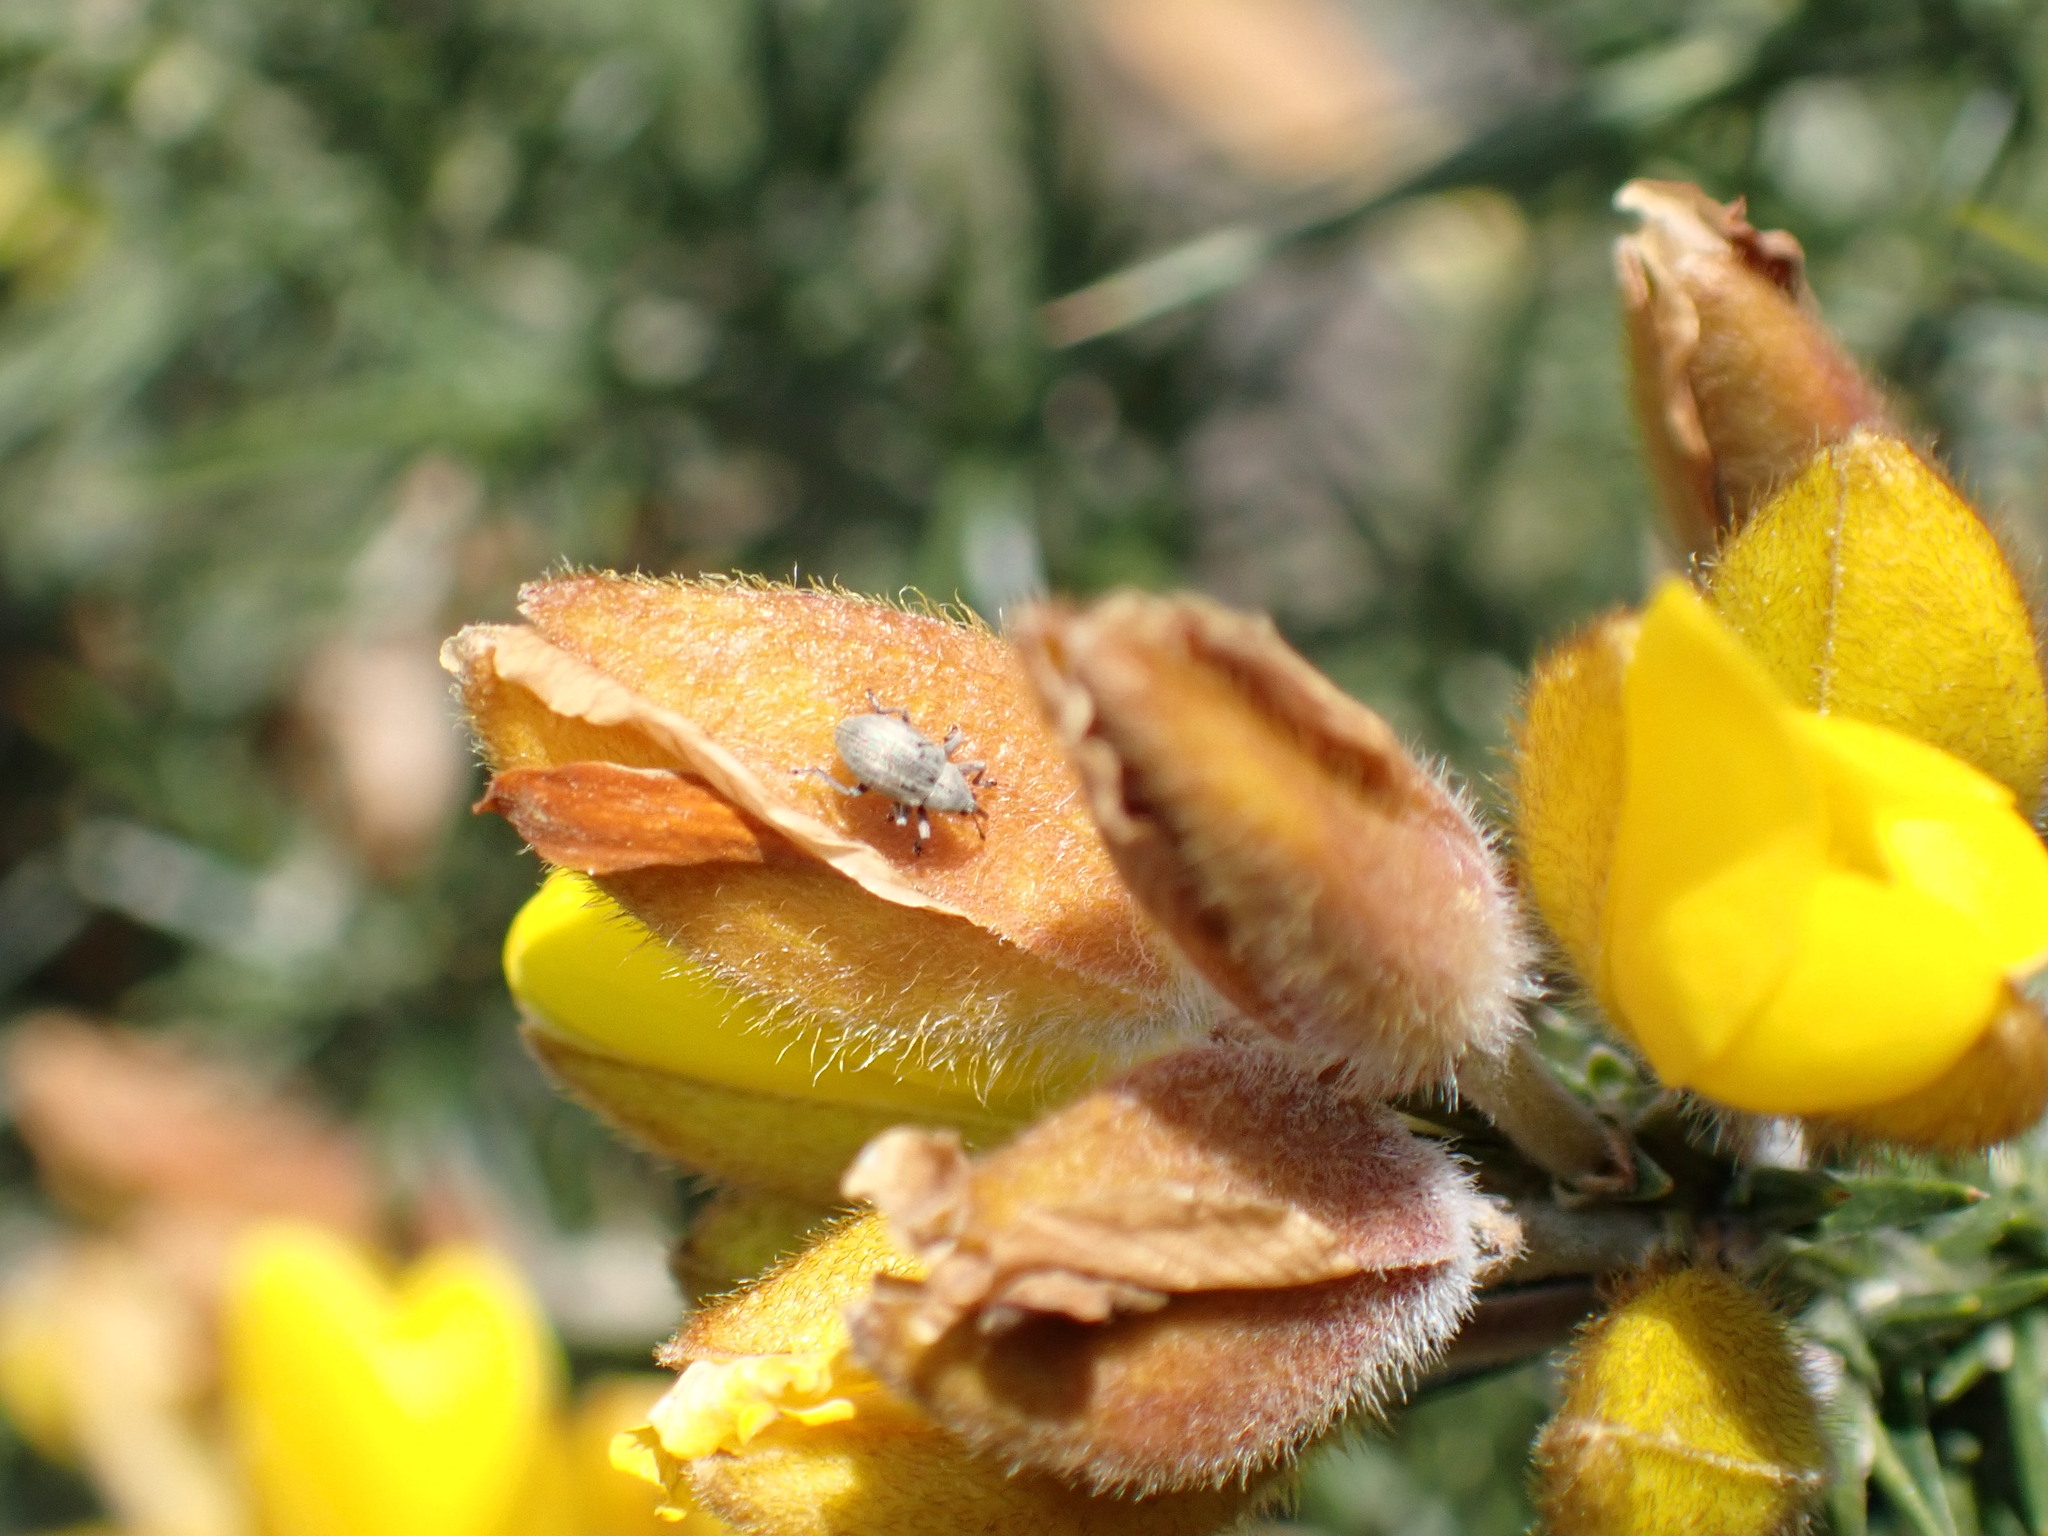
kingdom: Animalia
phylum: Arthropoda
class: Insecta
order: Coleoptera
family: Brentidae
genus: Exapion
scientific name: Exapion ulicis
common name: Gorse seed weevil
